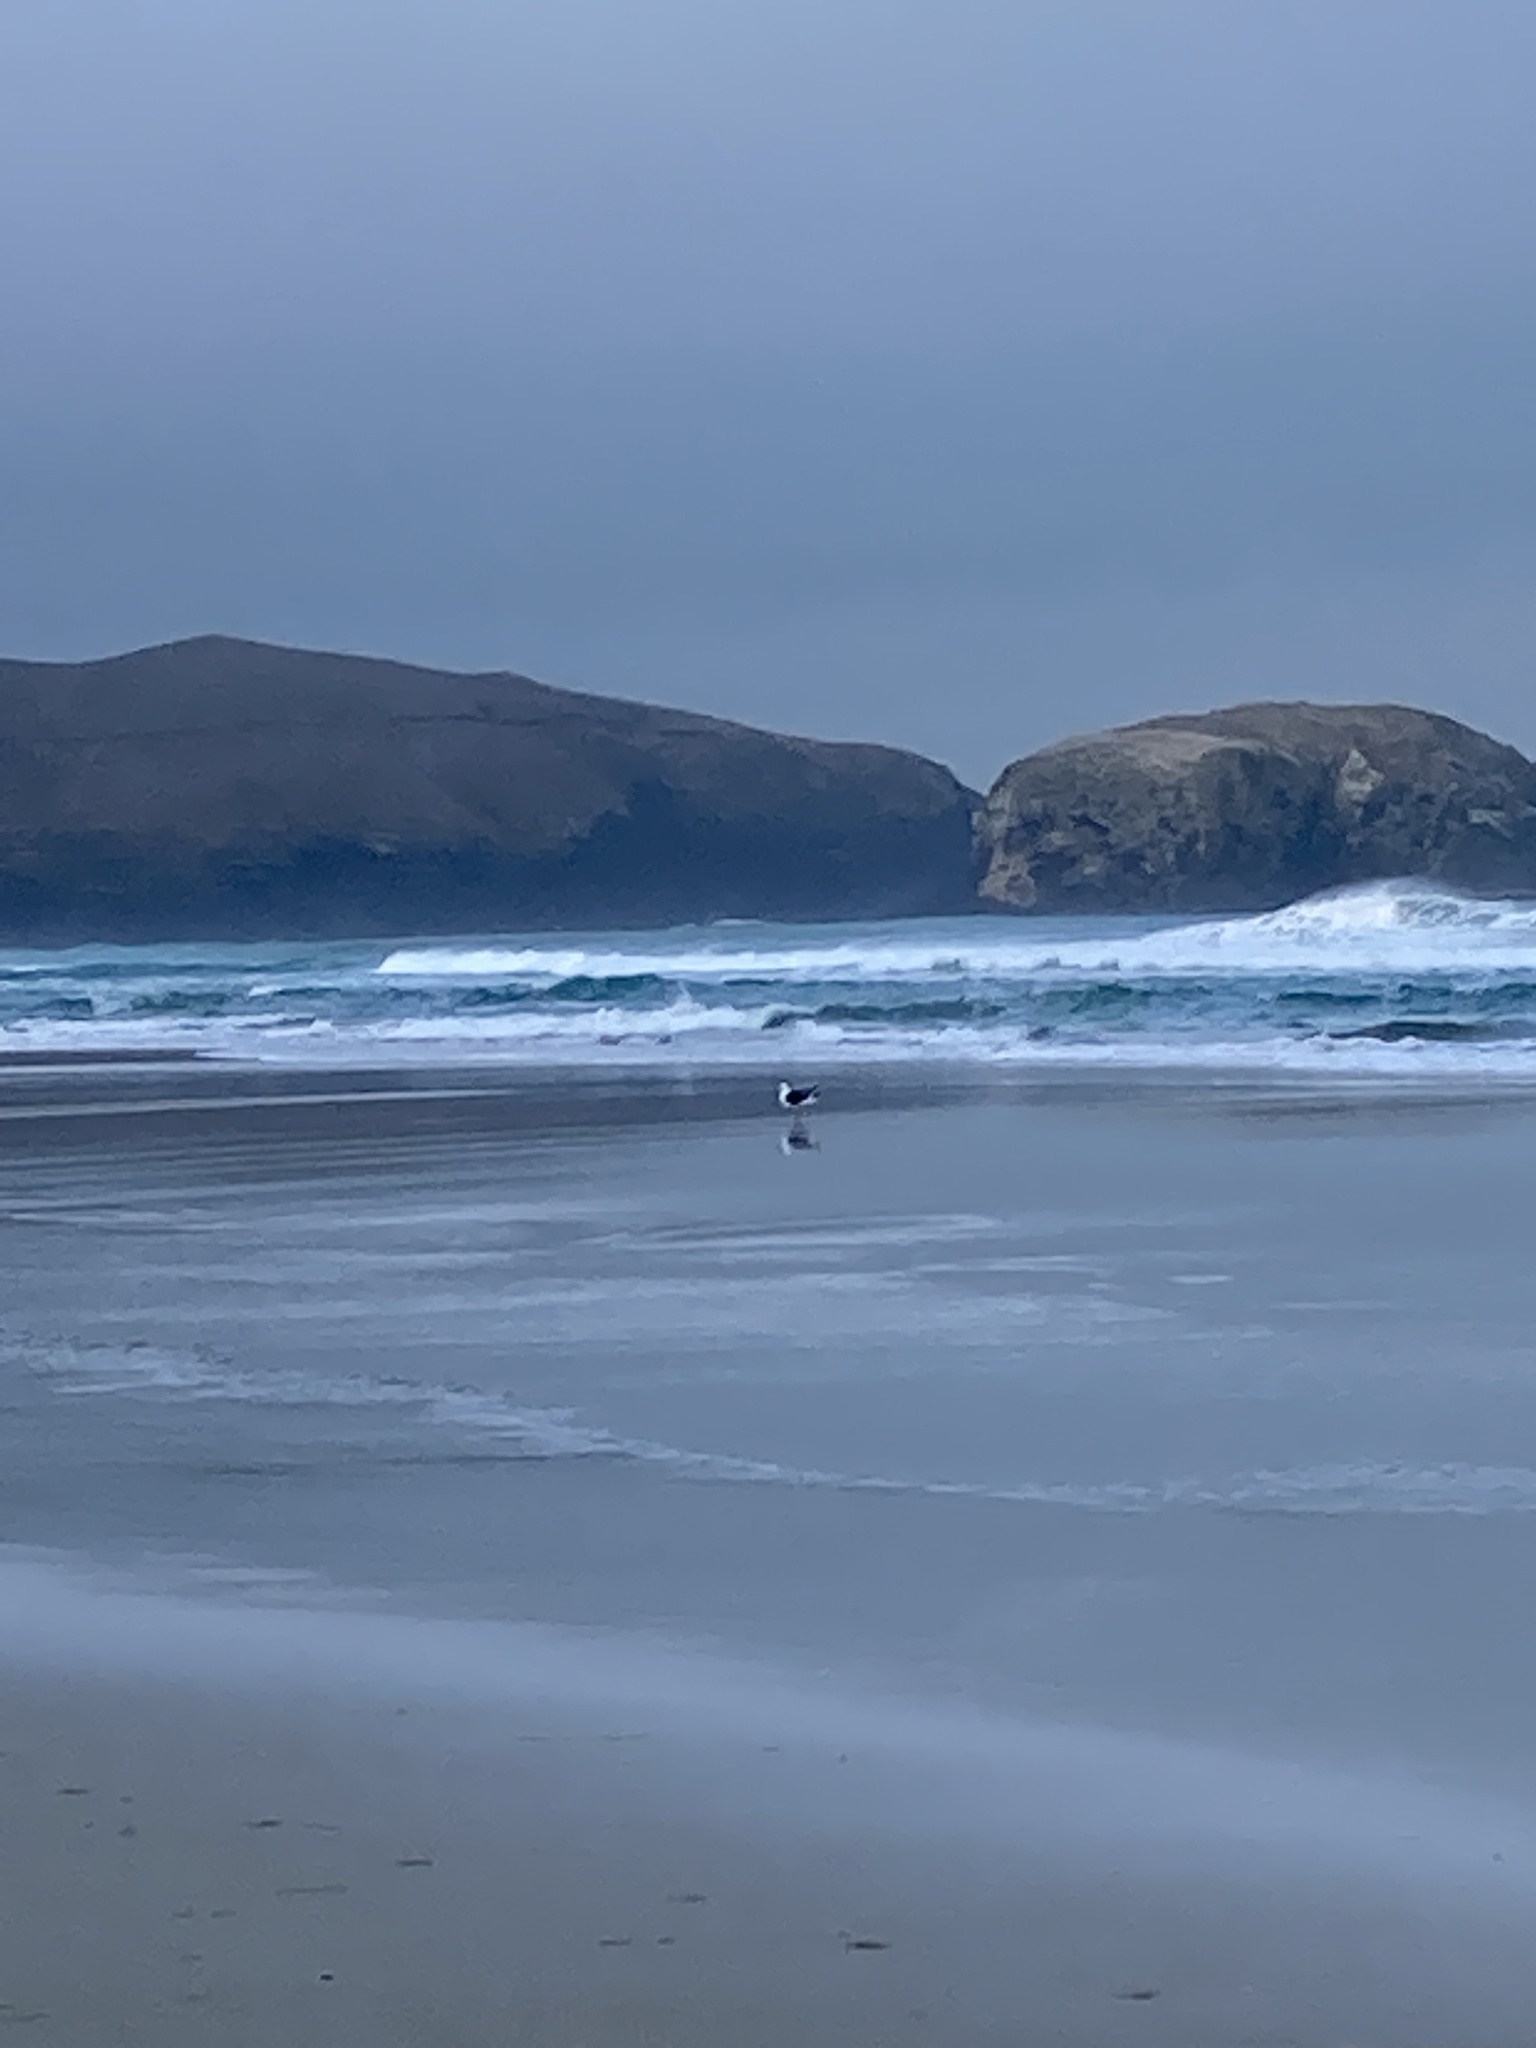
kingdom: Animalia
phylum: Chordata
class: Aves
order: Charadriiformes
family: Laridae
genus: Larus
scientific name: Larus dominicanus
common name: Kelp gull
